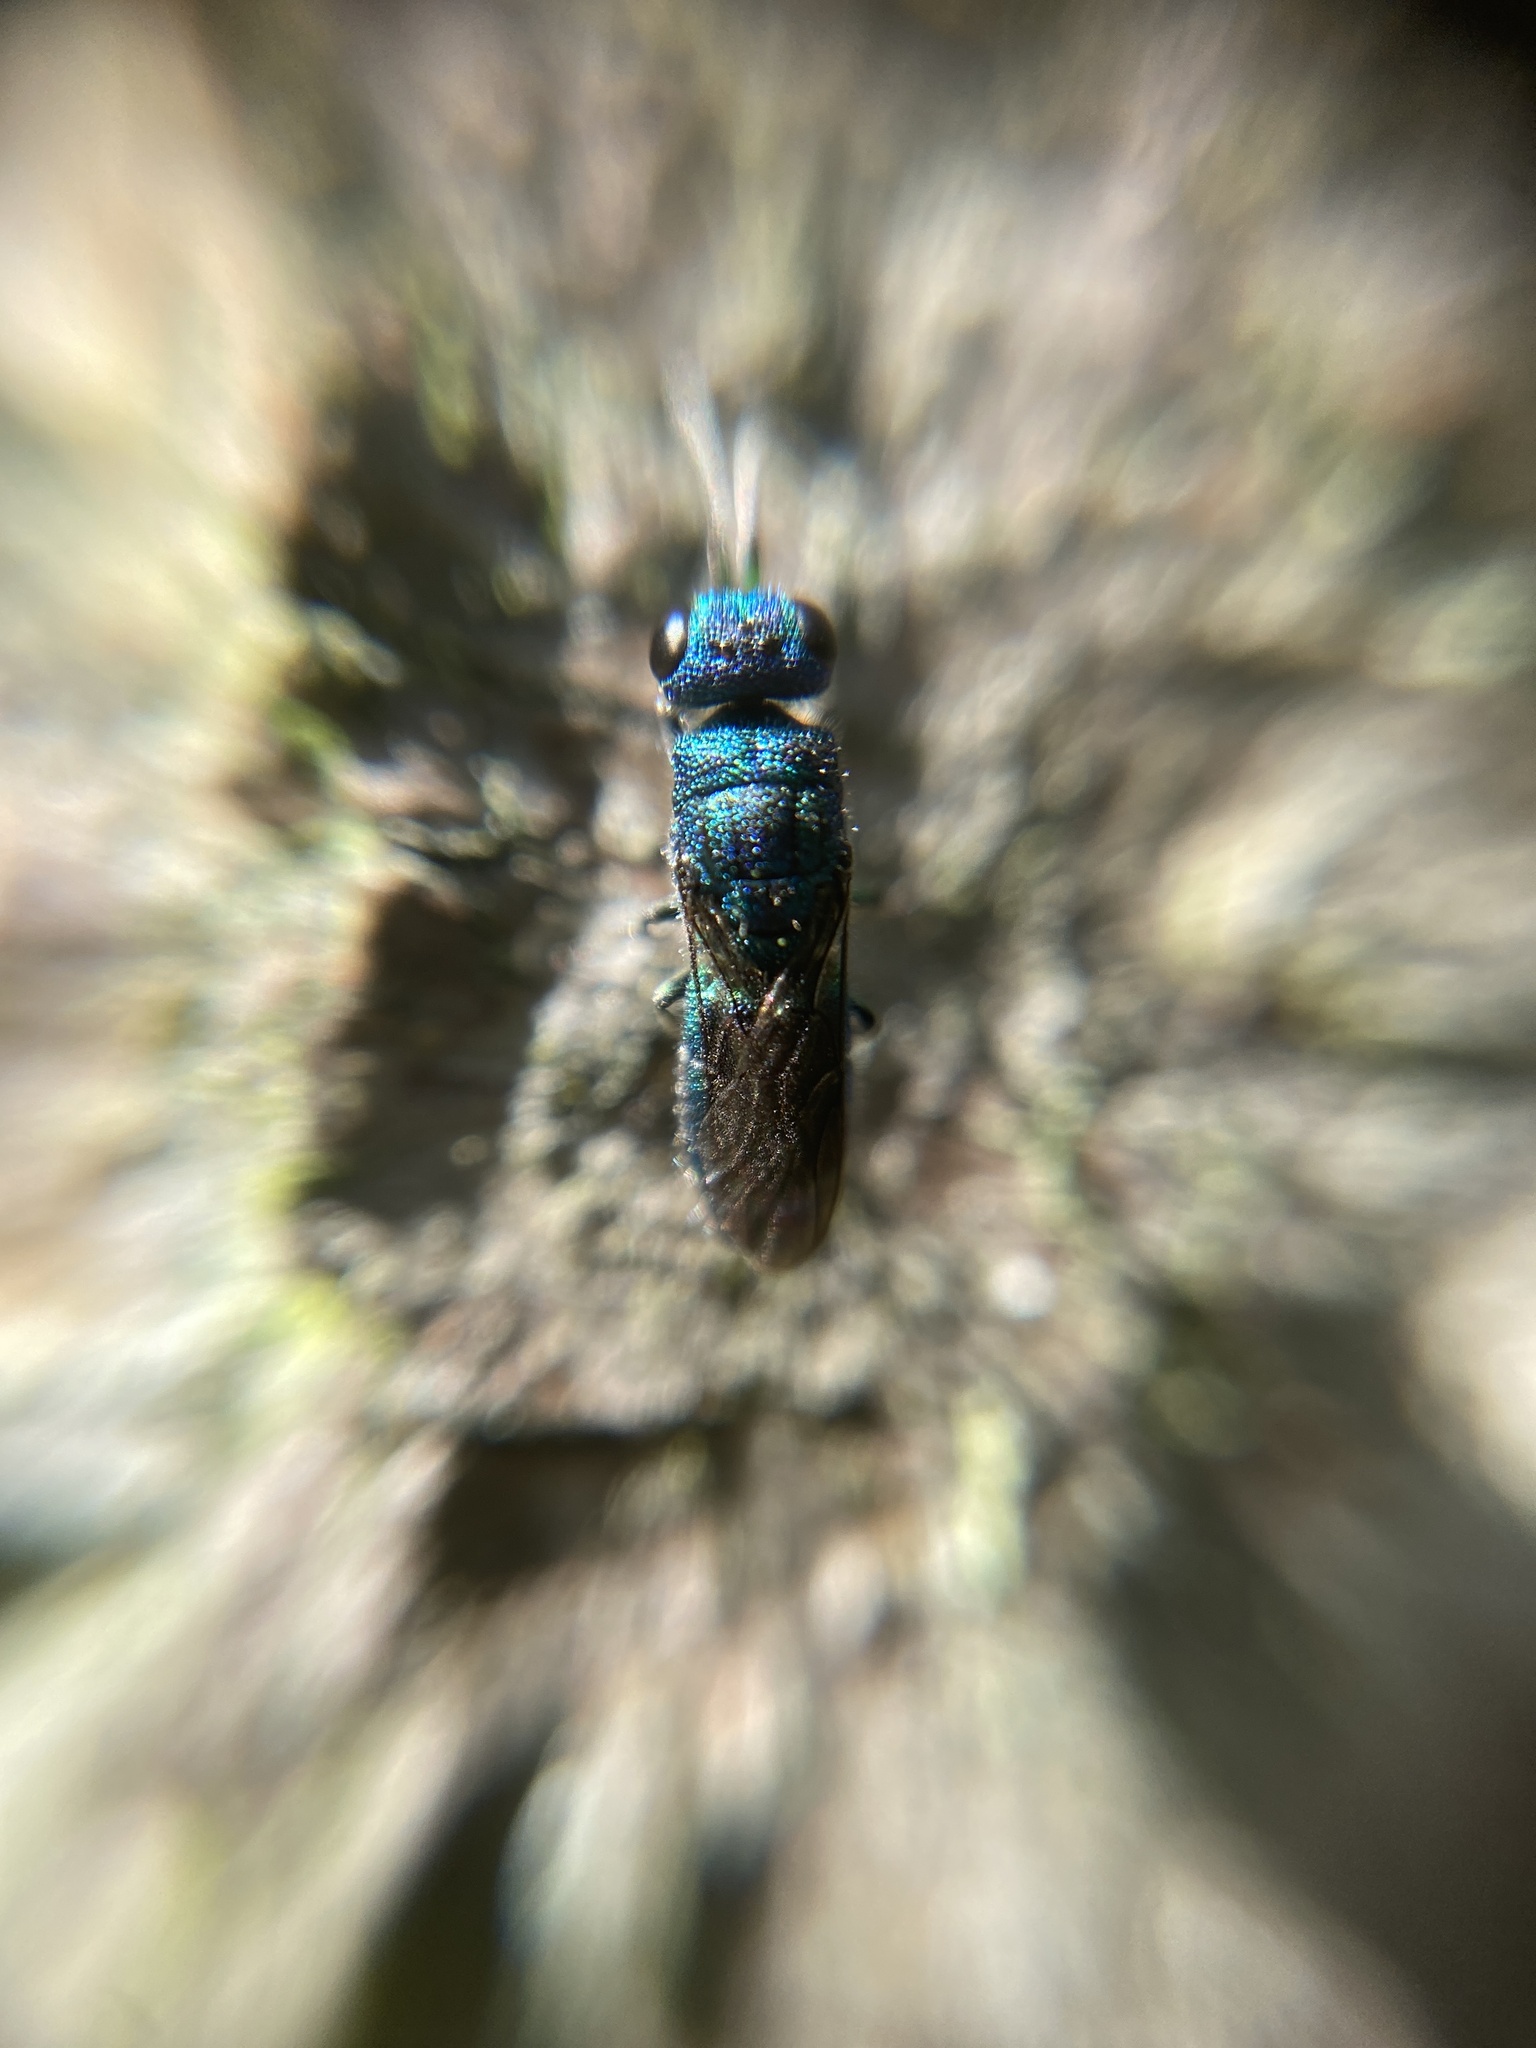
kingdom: Animalia
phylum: Arthropoda
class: Insecta
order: Hymenoptera
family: Pompilidae
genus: Pepsis
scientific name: Pepsis cyanea
